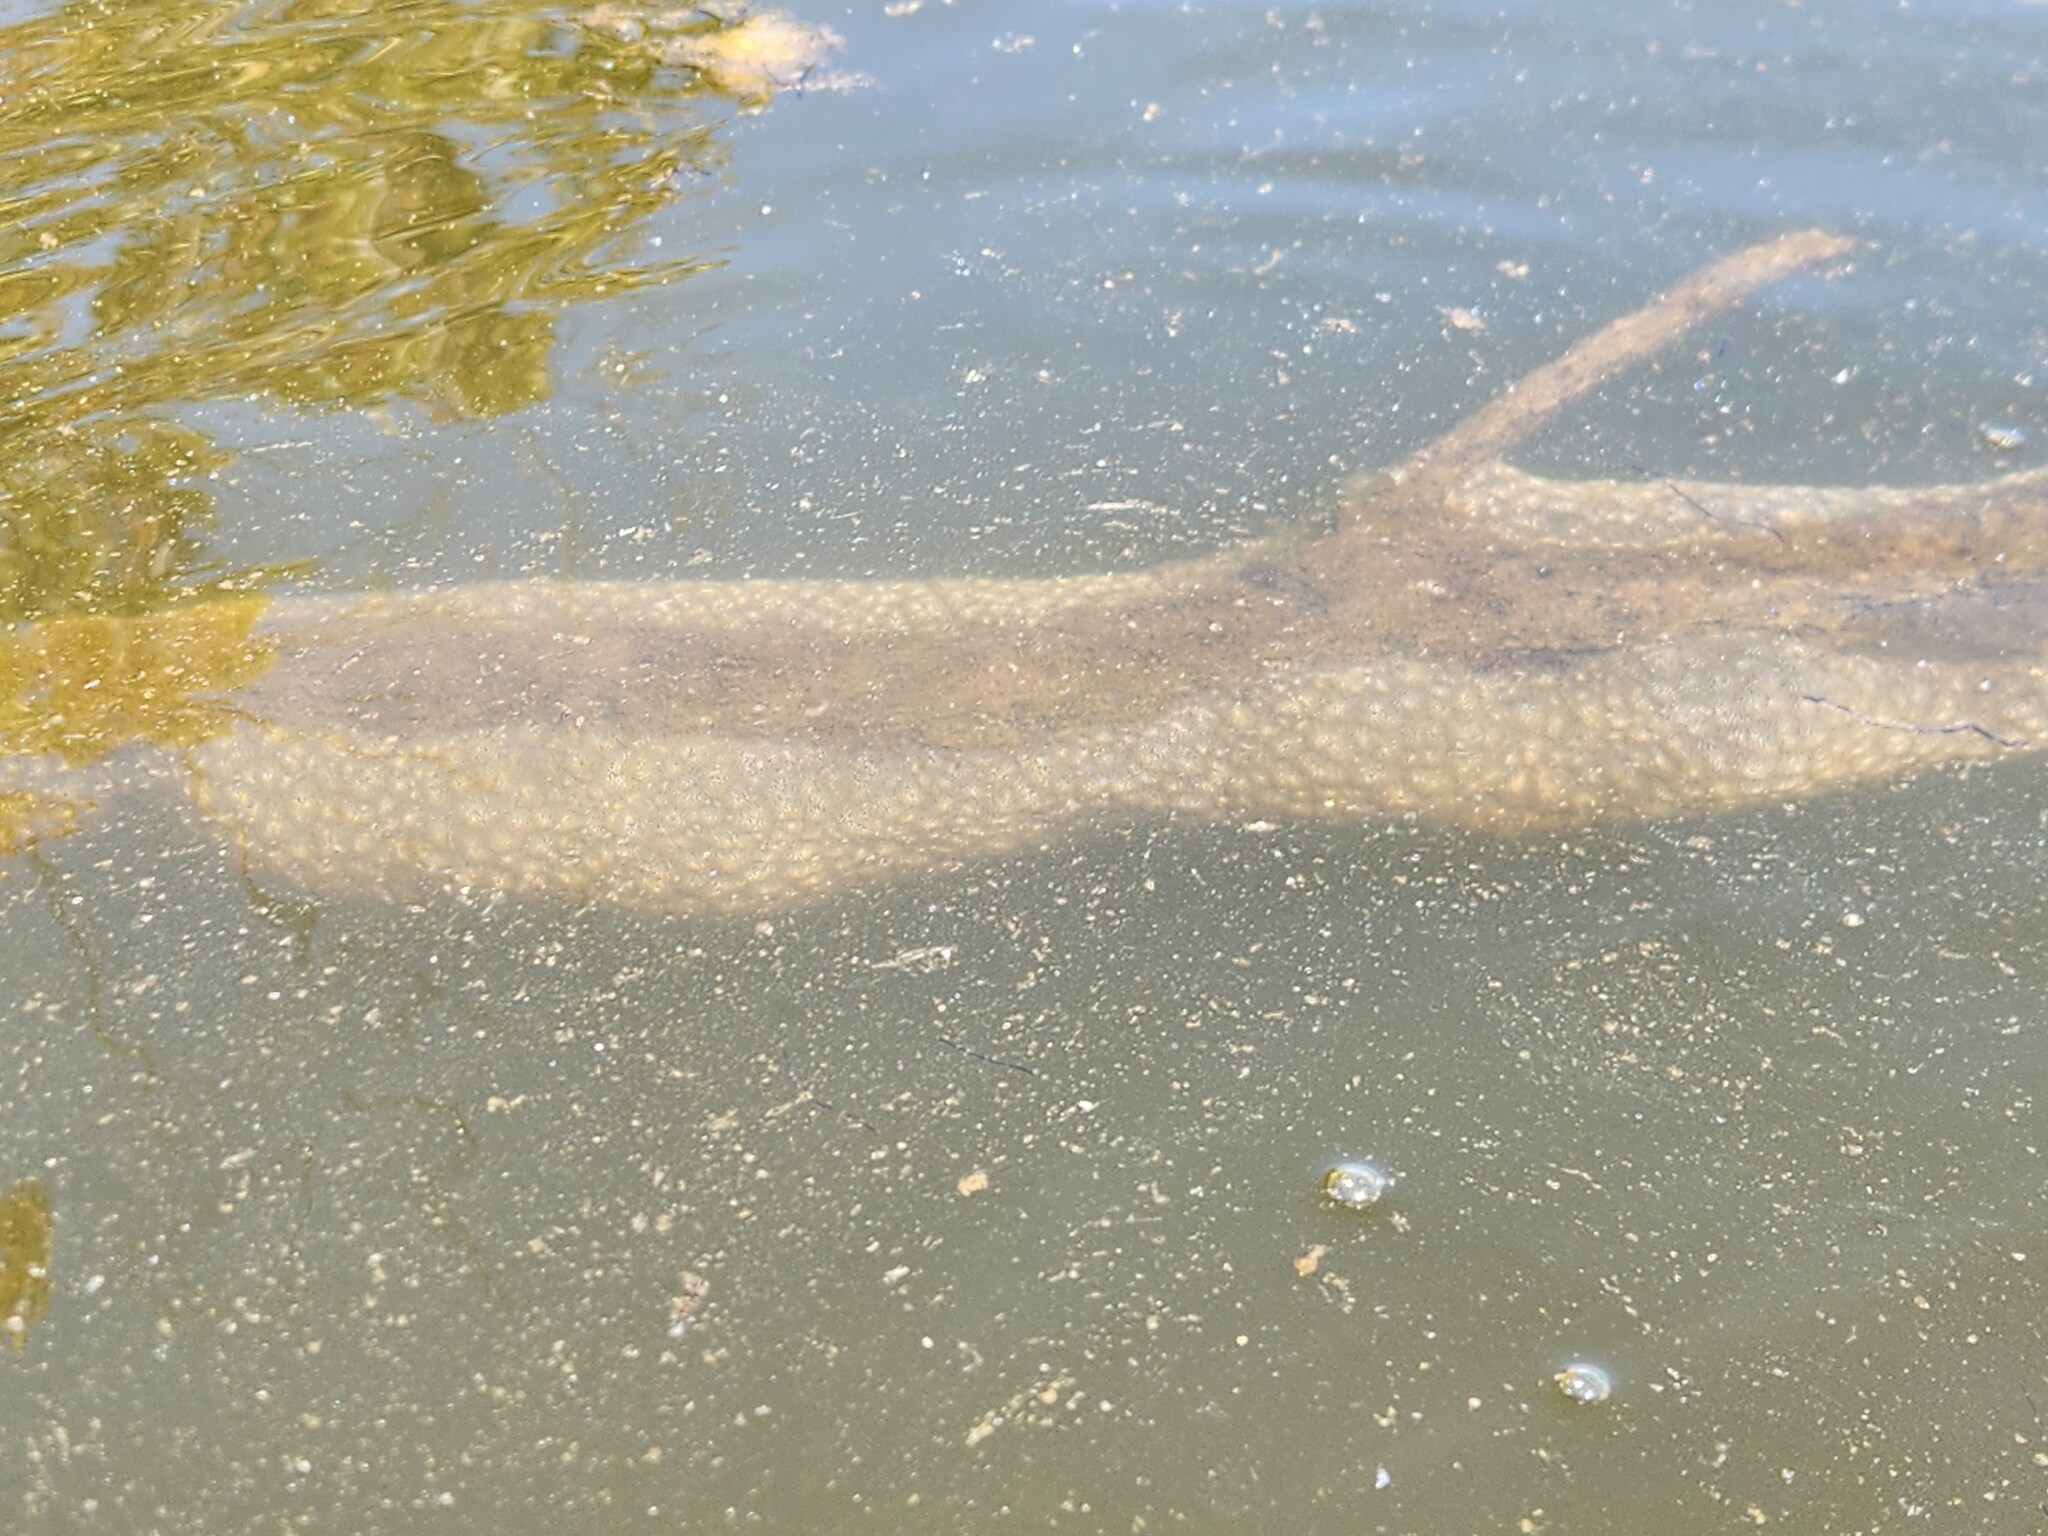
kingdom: Animalia
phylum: Bryozoa
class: Phylactolaemata
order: Plumatellida
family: Pectinatellidae
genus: Pectinatella
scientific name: Pectinatella magnifica
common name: Magnificent bryozoan
